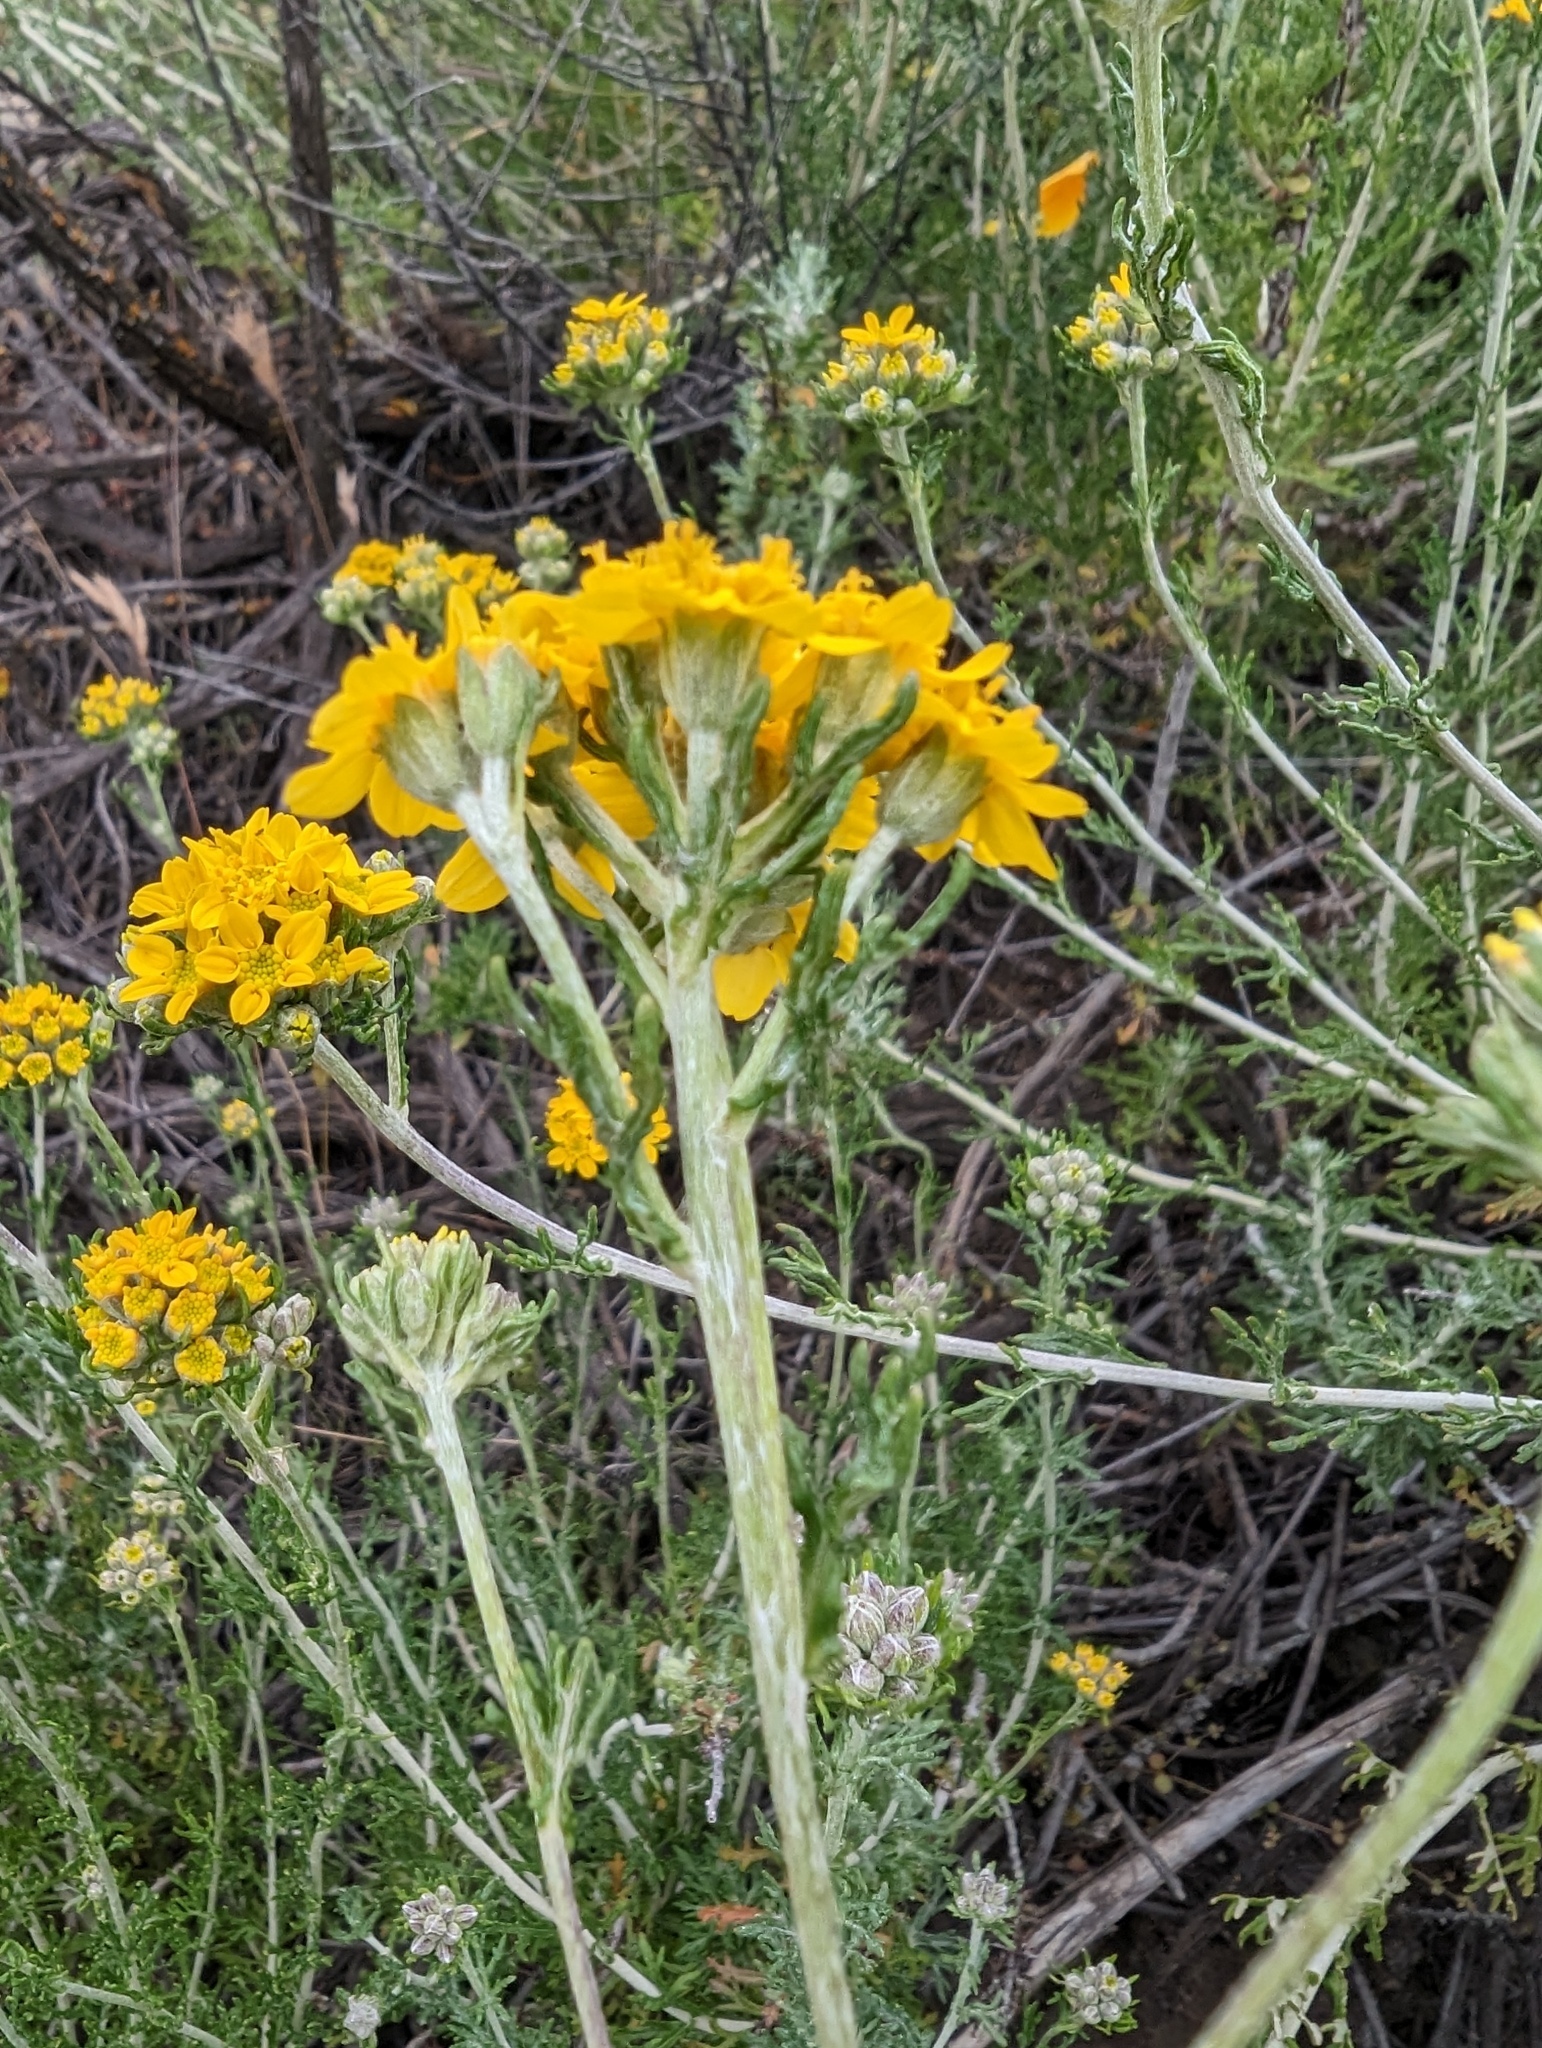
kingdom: Plantae
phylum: Tracheophyta
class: Magnoliopsida
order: Asterales
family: Asteraceae
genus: Eriophyllum
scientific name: Eriophyllum confertiflorum
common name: Golden-yarrow
